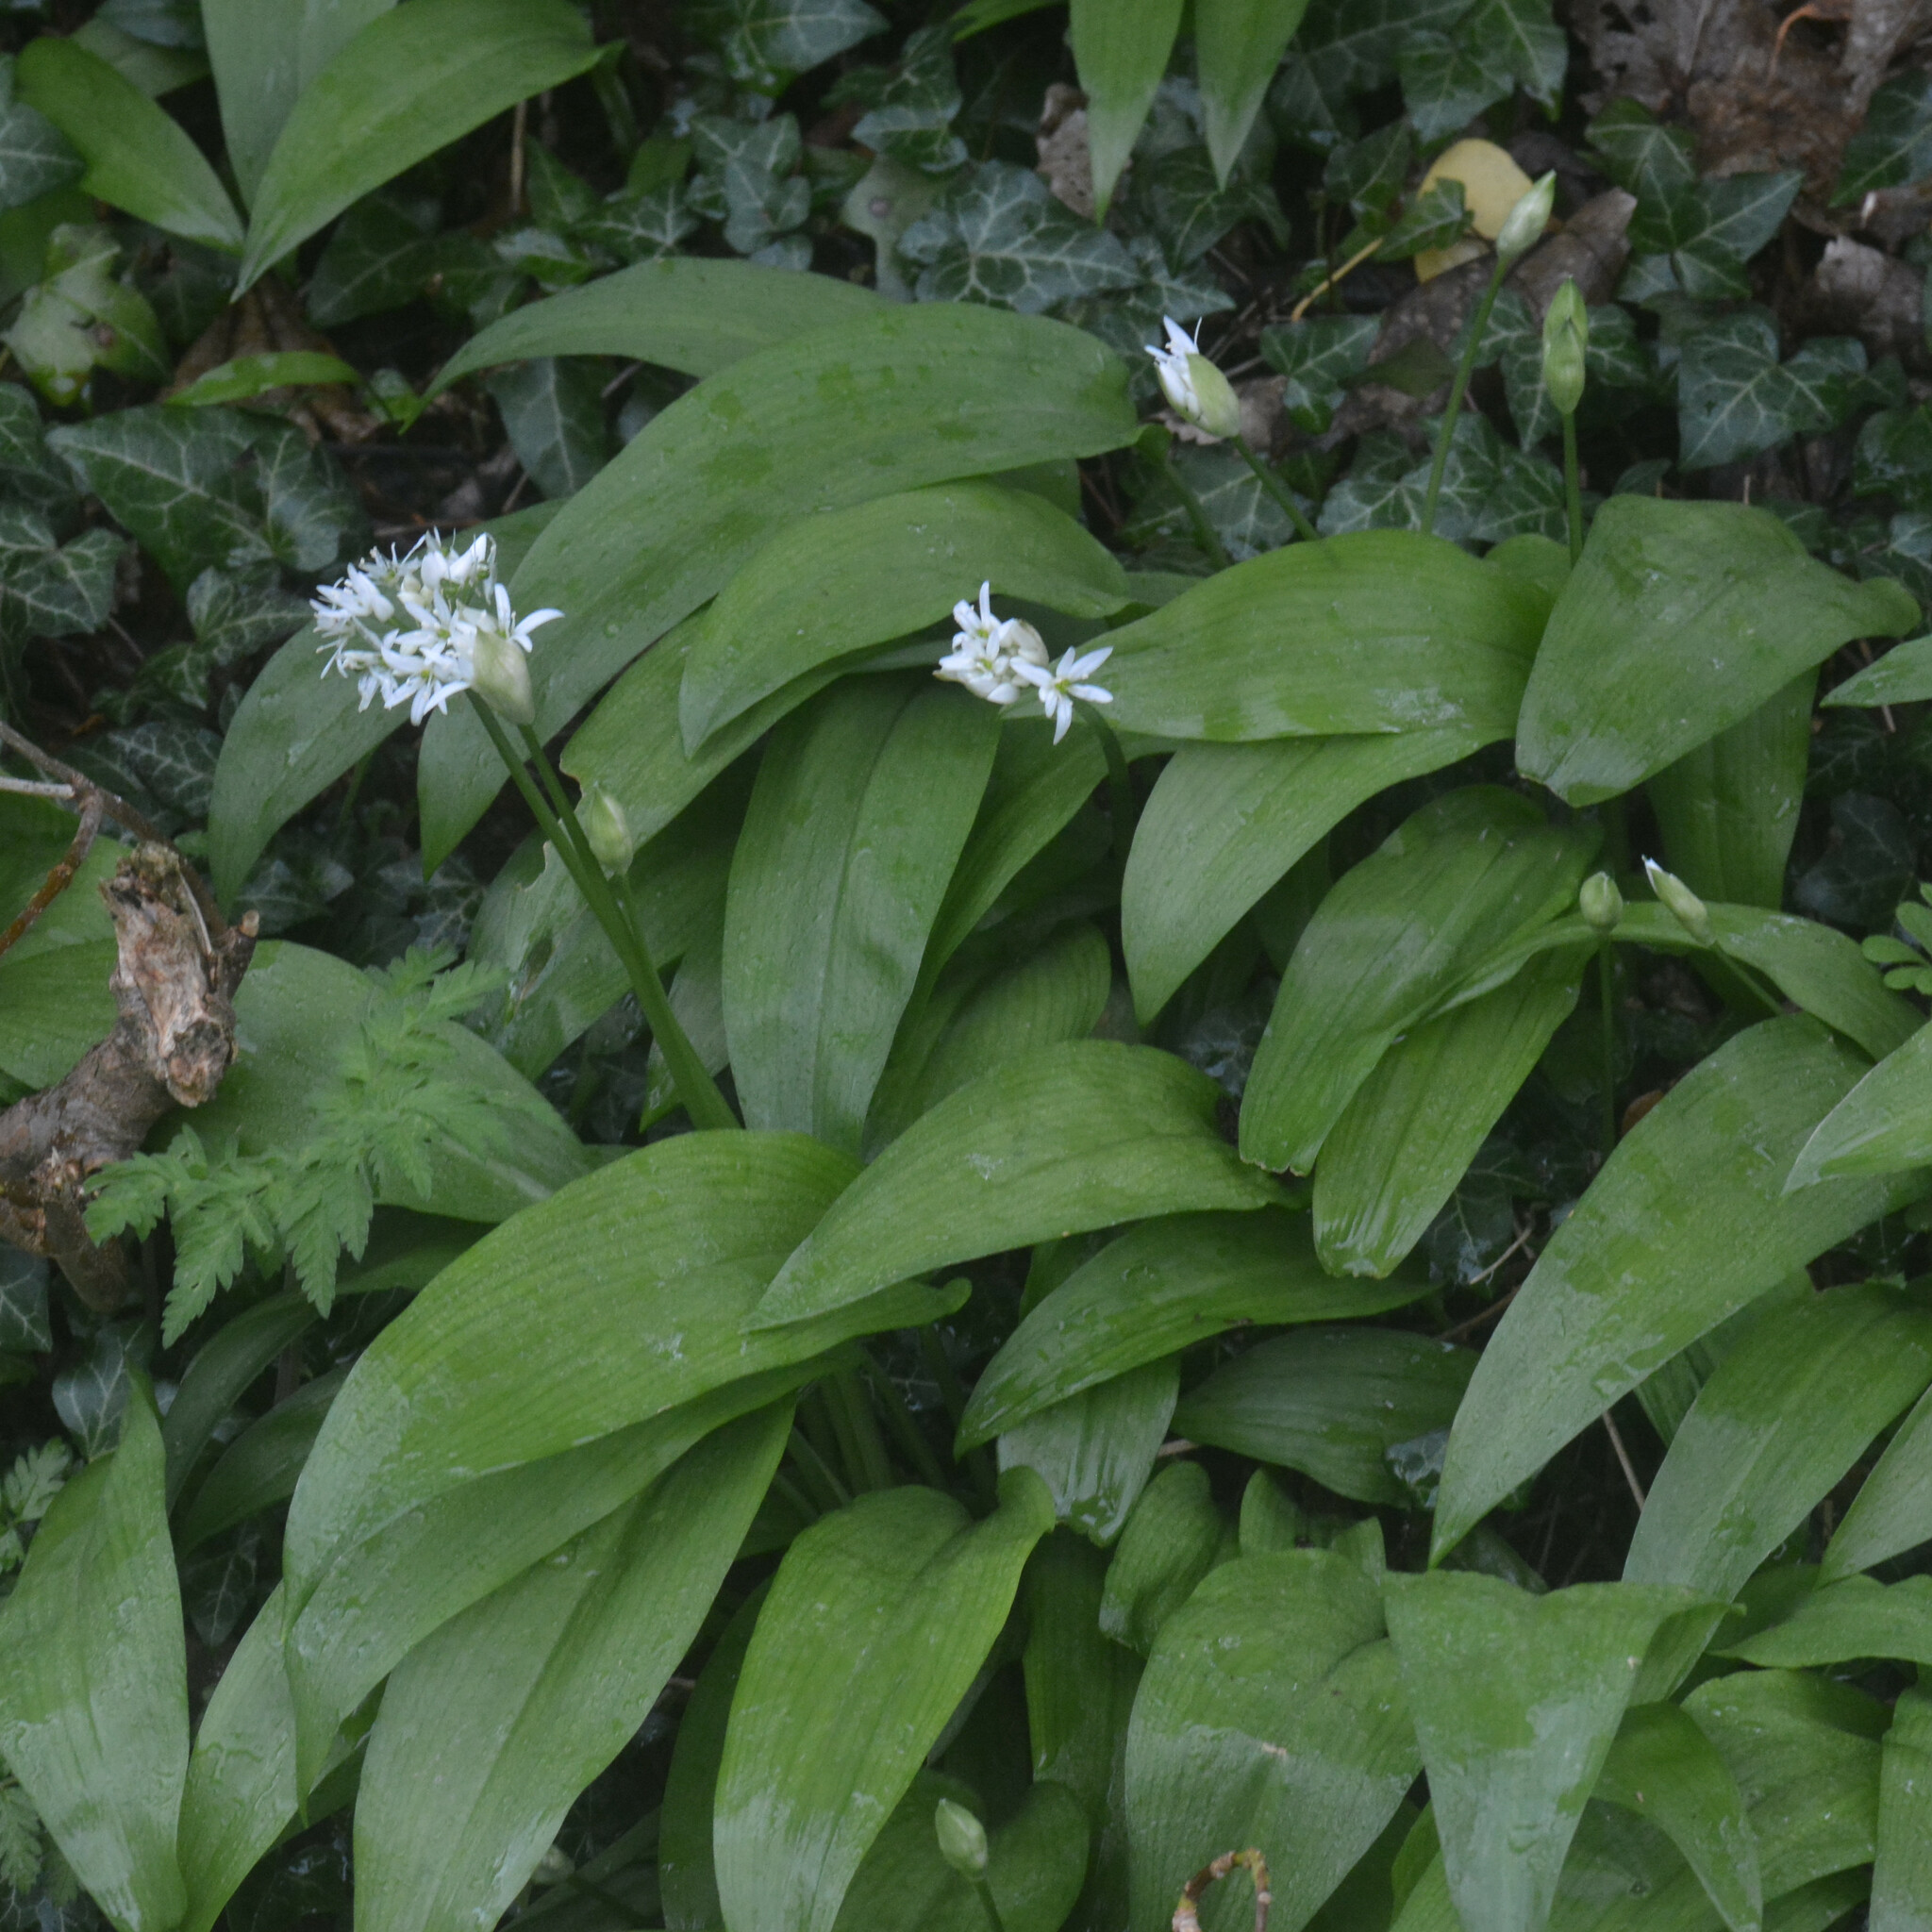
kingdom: Plantae
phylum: Tracheophyta
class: Liliopsida
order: Asparagales
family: Amaryllidaceae
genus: Allium
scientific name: Allium ursinum
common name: Ramsons
